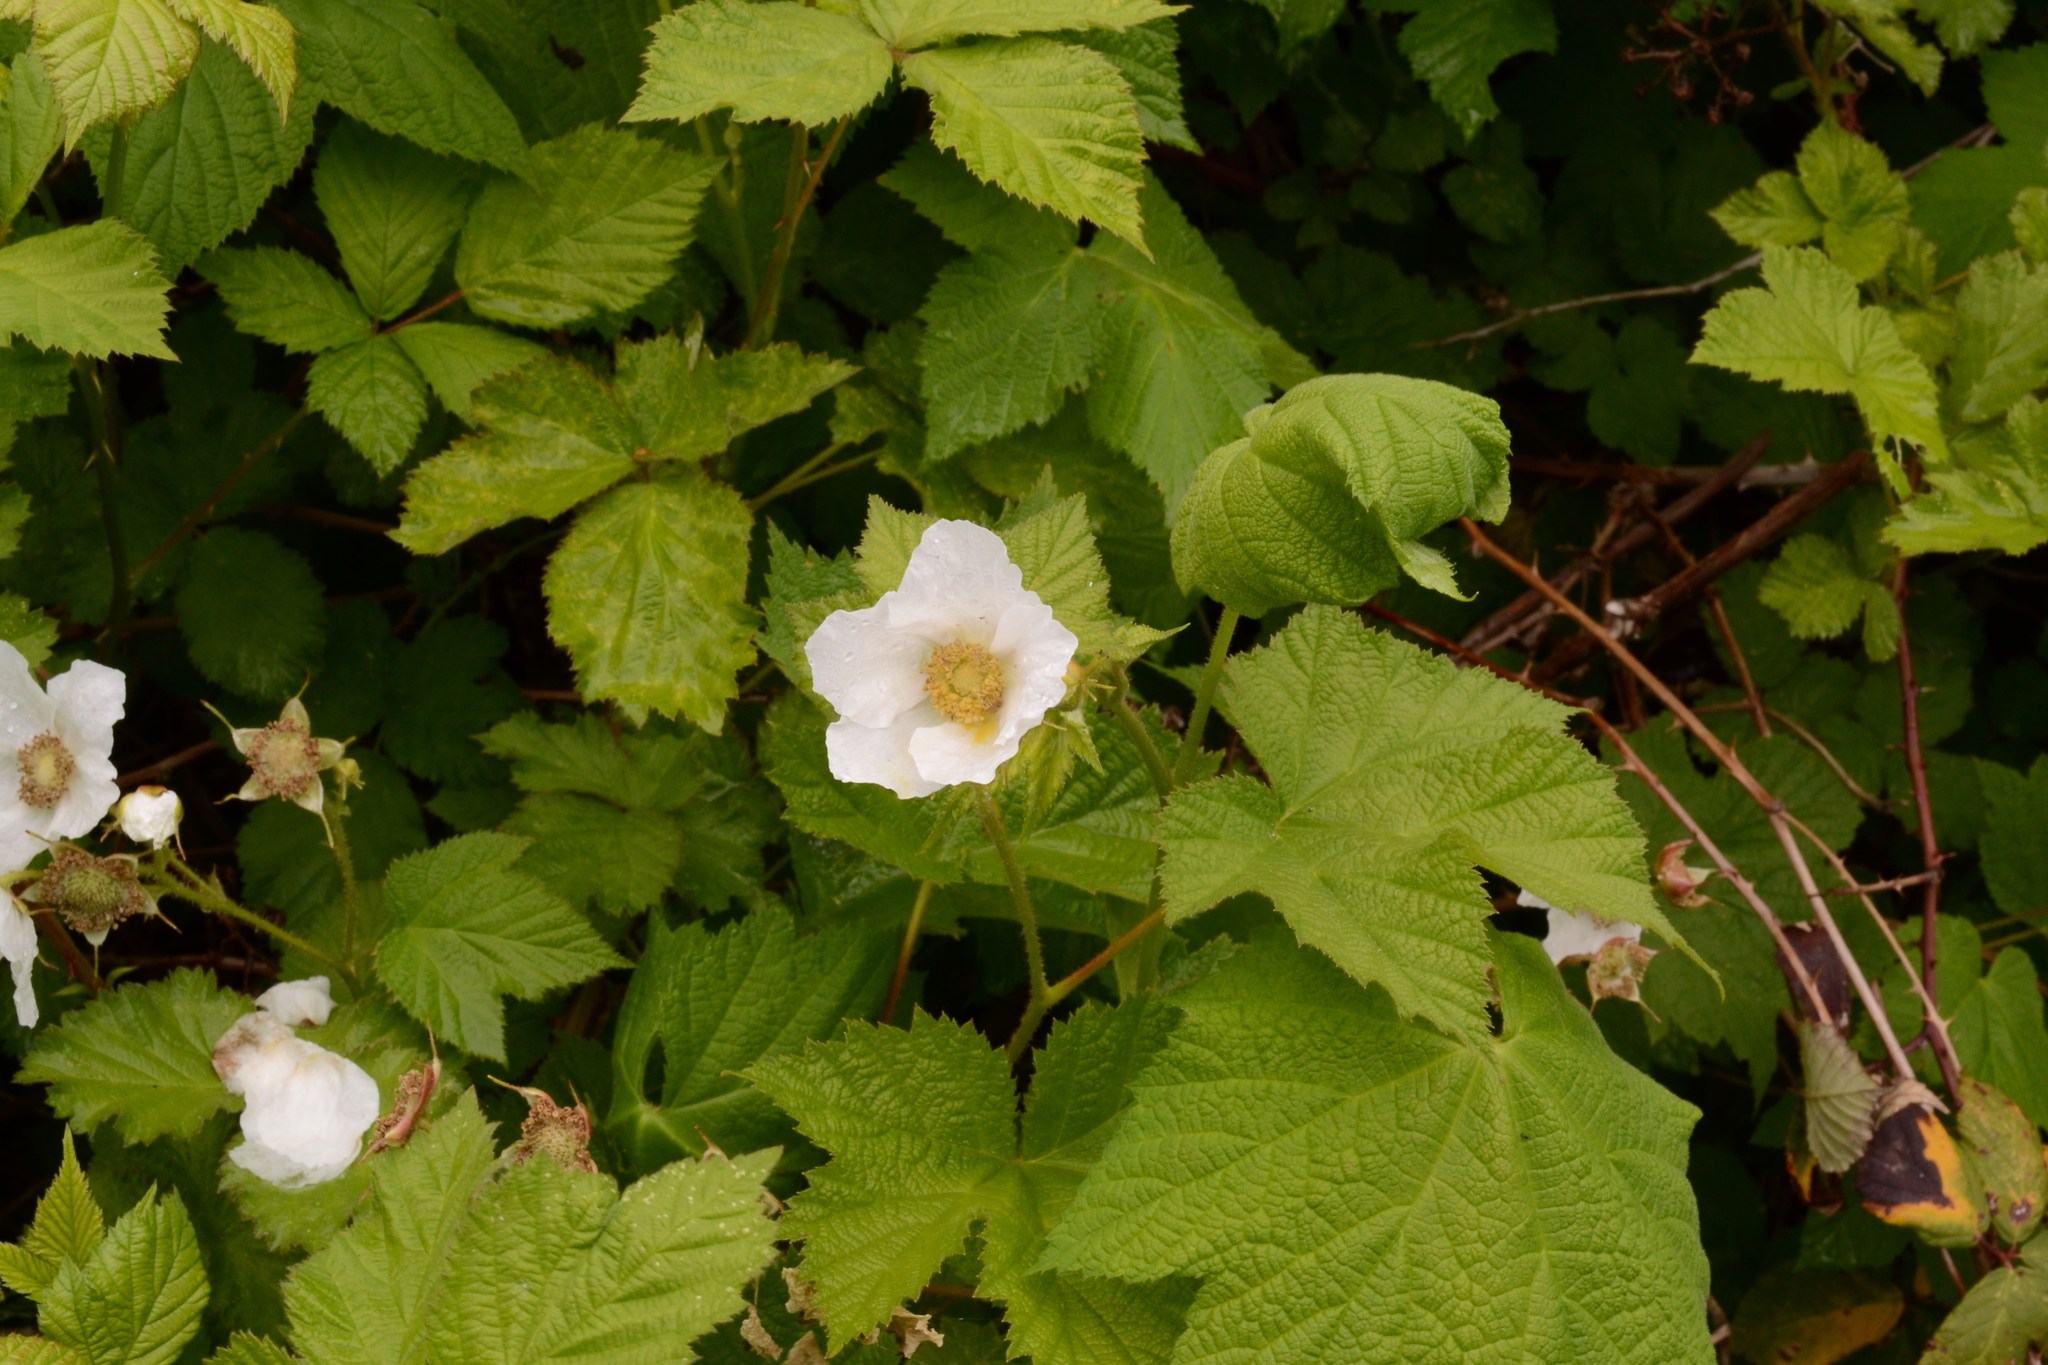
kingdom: Plantae
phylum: Tracheophyta
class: Magnoliopsida
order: Rosales
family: Rosaceae
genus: Rubus
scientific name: Rubus parviflorus
